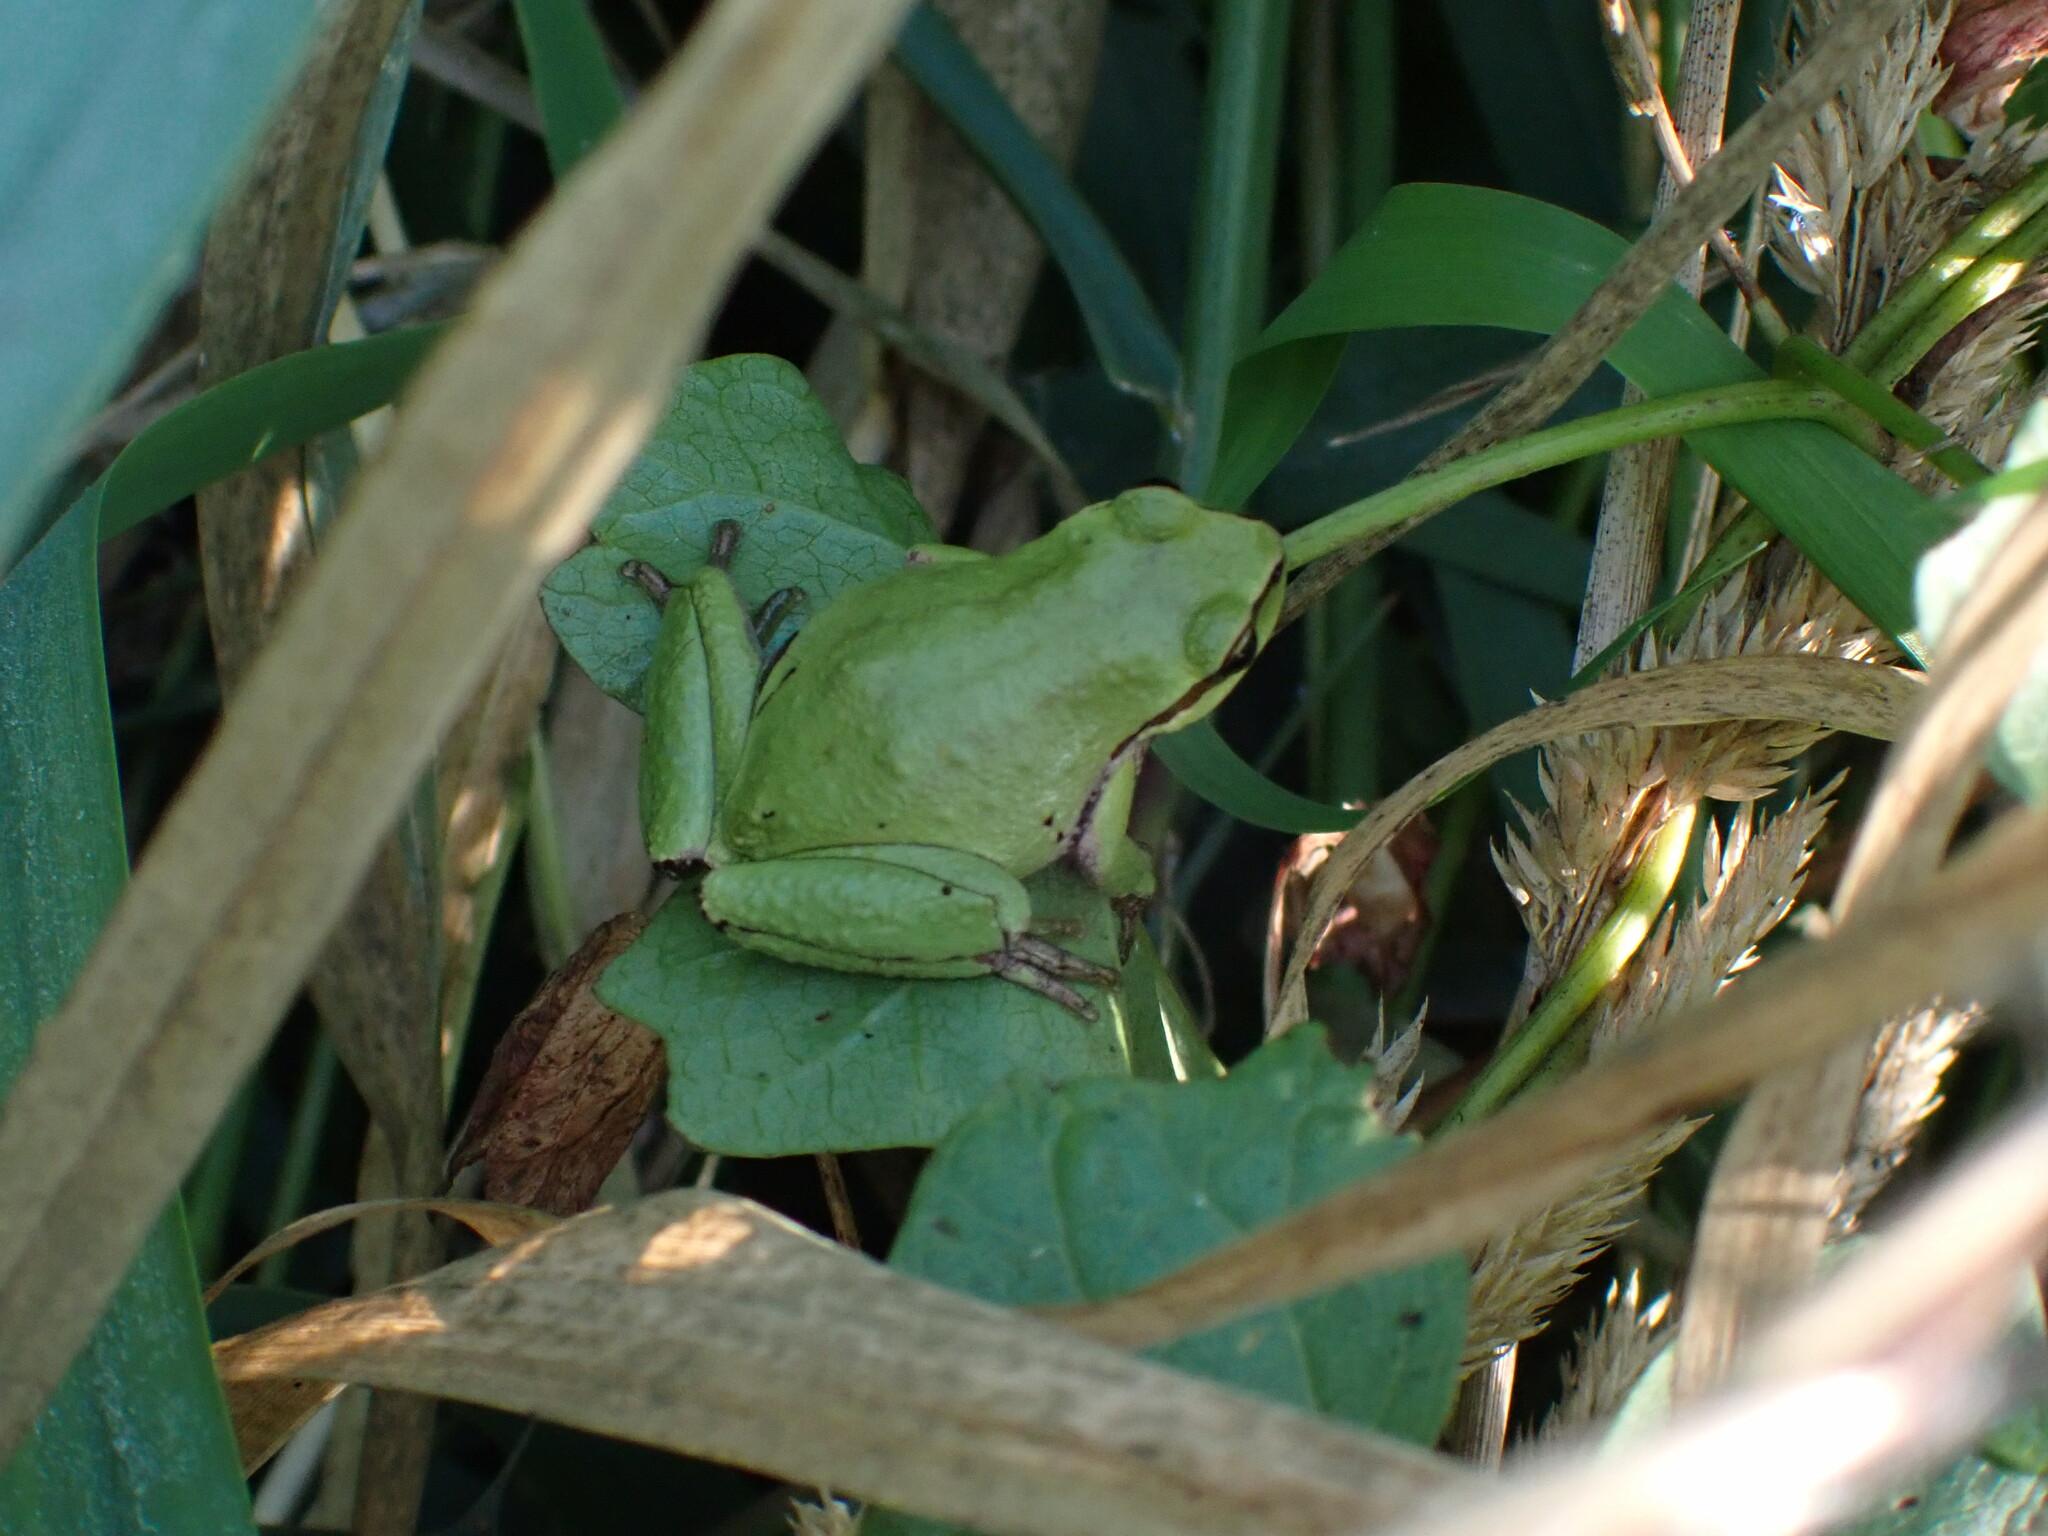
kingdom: Animalia
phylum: Chordata
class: Amphibia
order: Anura
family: Hylidae
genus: Pseudacris
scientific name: Pseudacris regilla
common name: Pacific chorus frog
